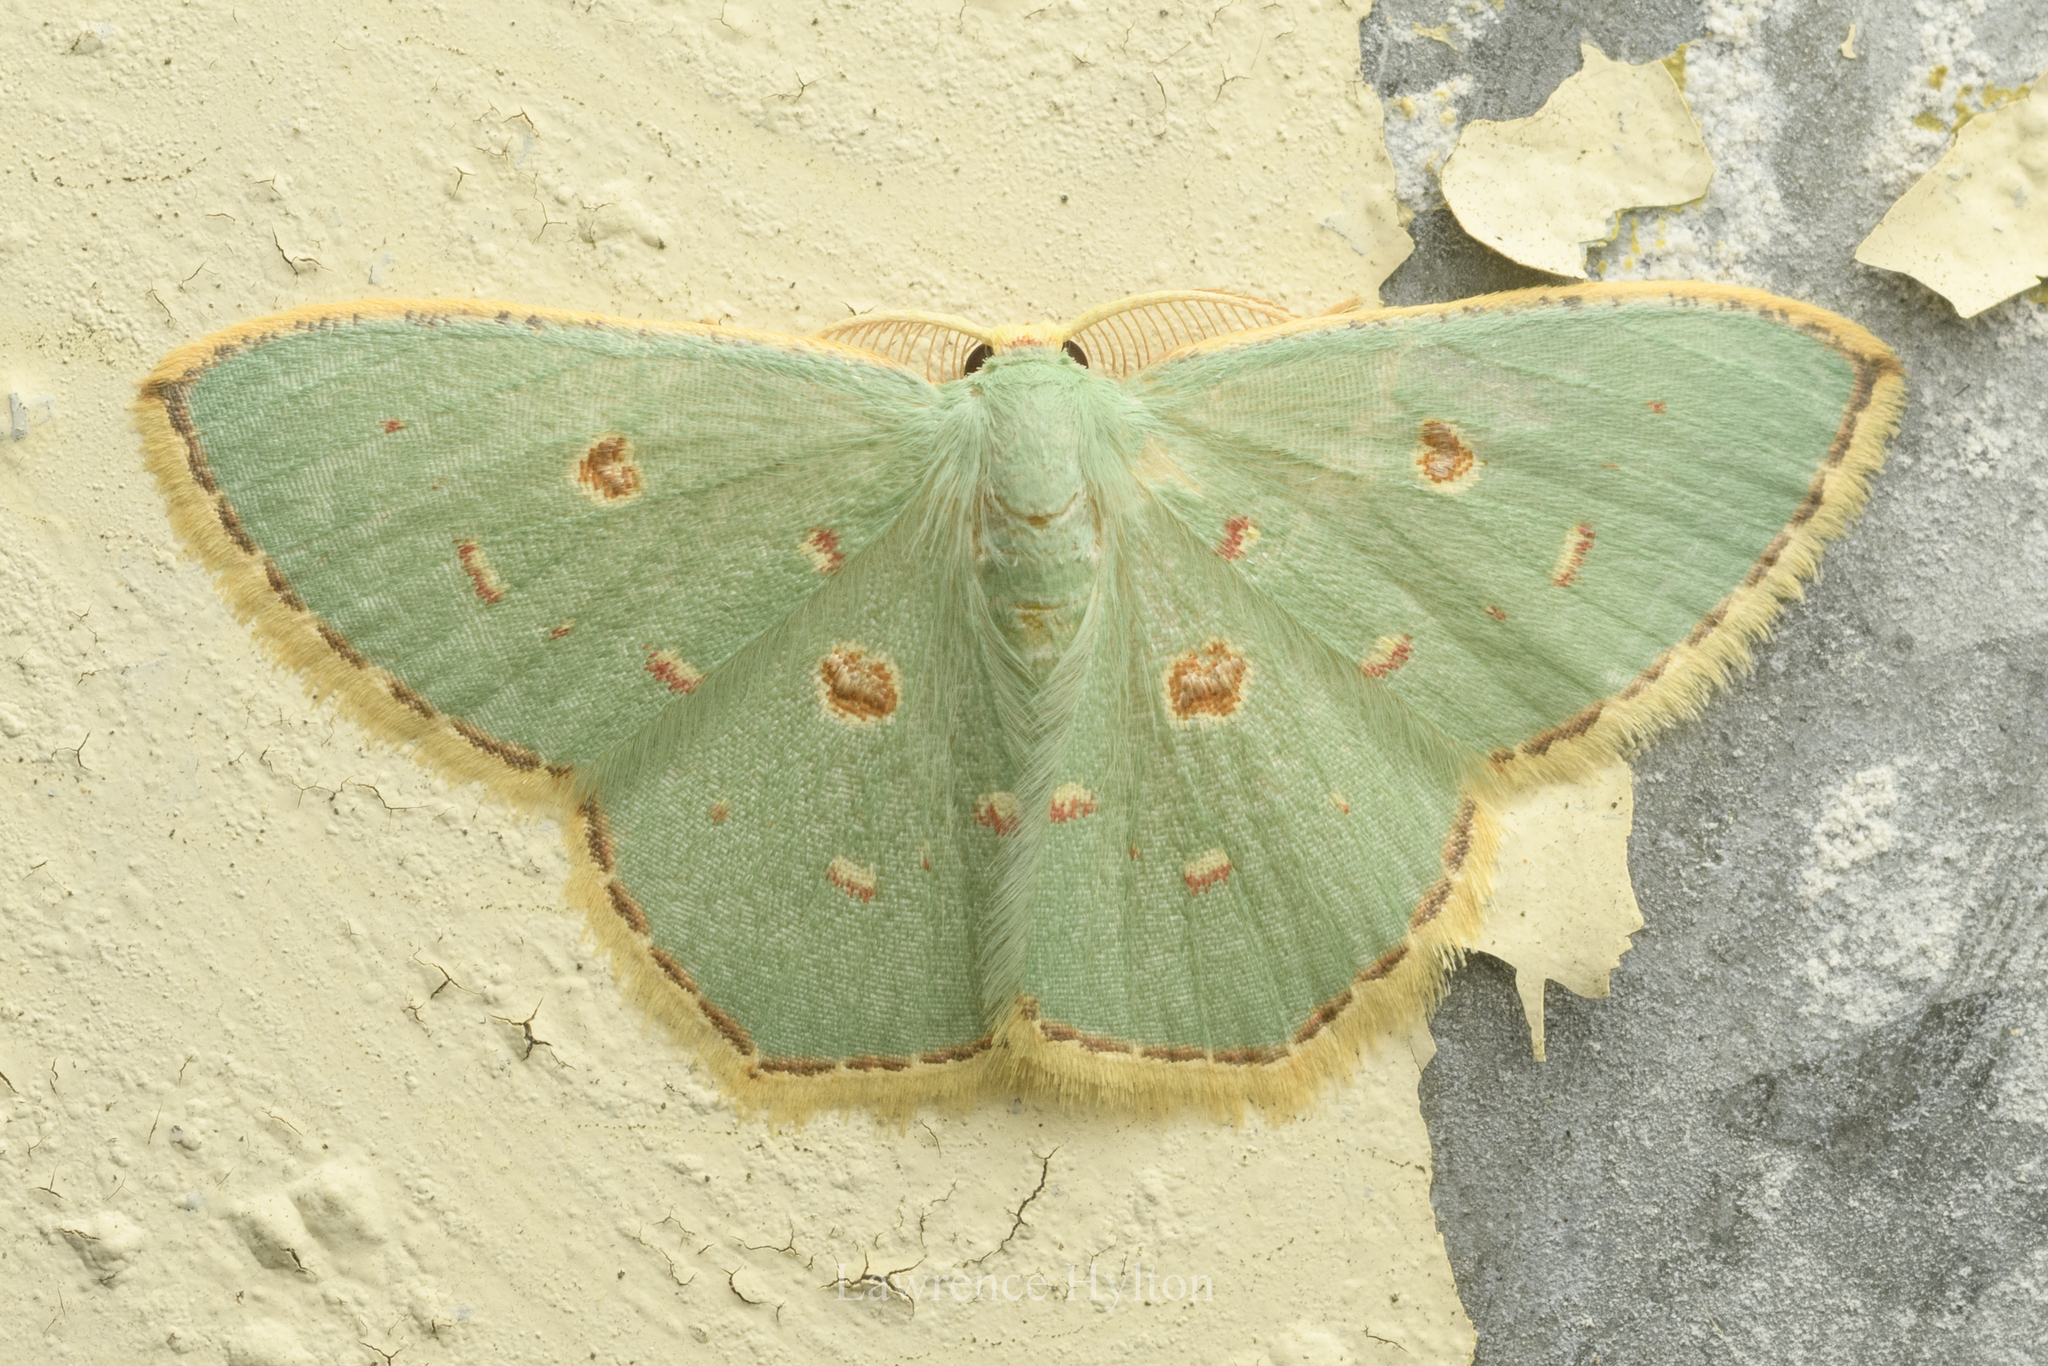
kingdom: Animalia
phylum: Arthropoda
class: Insecta
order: Lepidoptera
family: Geometridae
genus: Comostola
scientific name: Comostola meritaria
